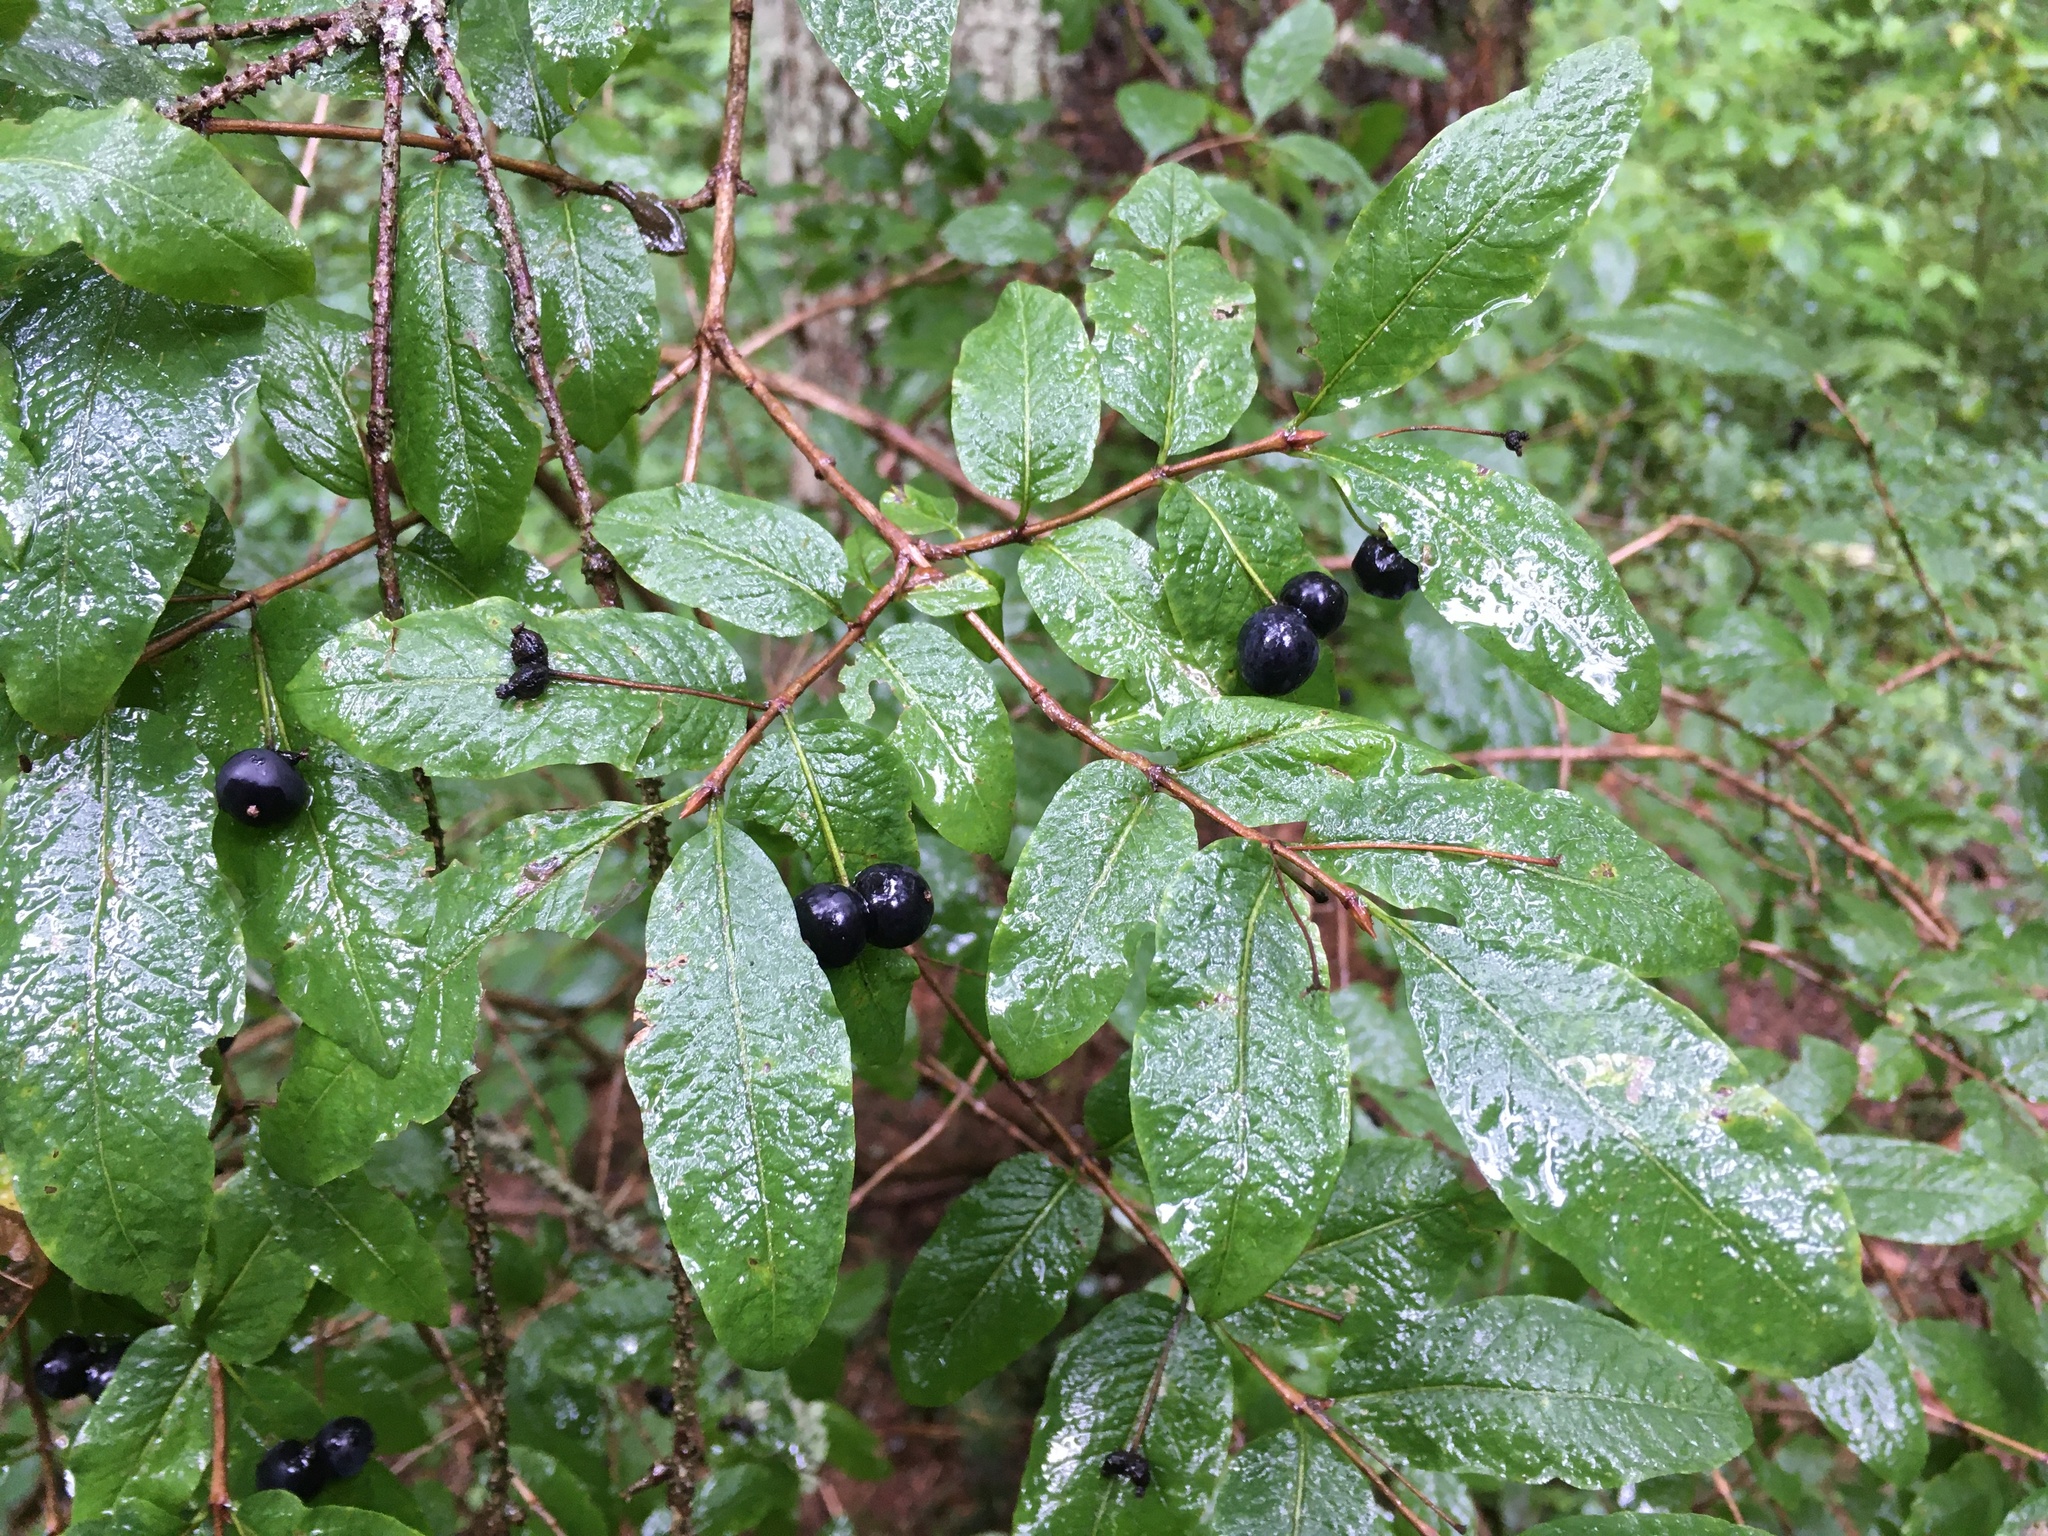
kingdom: Plantae
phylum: Tracheophyta
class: Magnoliopsida
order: Dipsacales
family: Caprifoliaceae
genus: Lonicera
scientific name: Lonicera nigra
